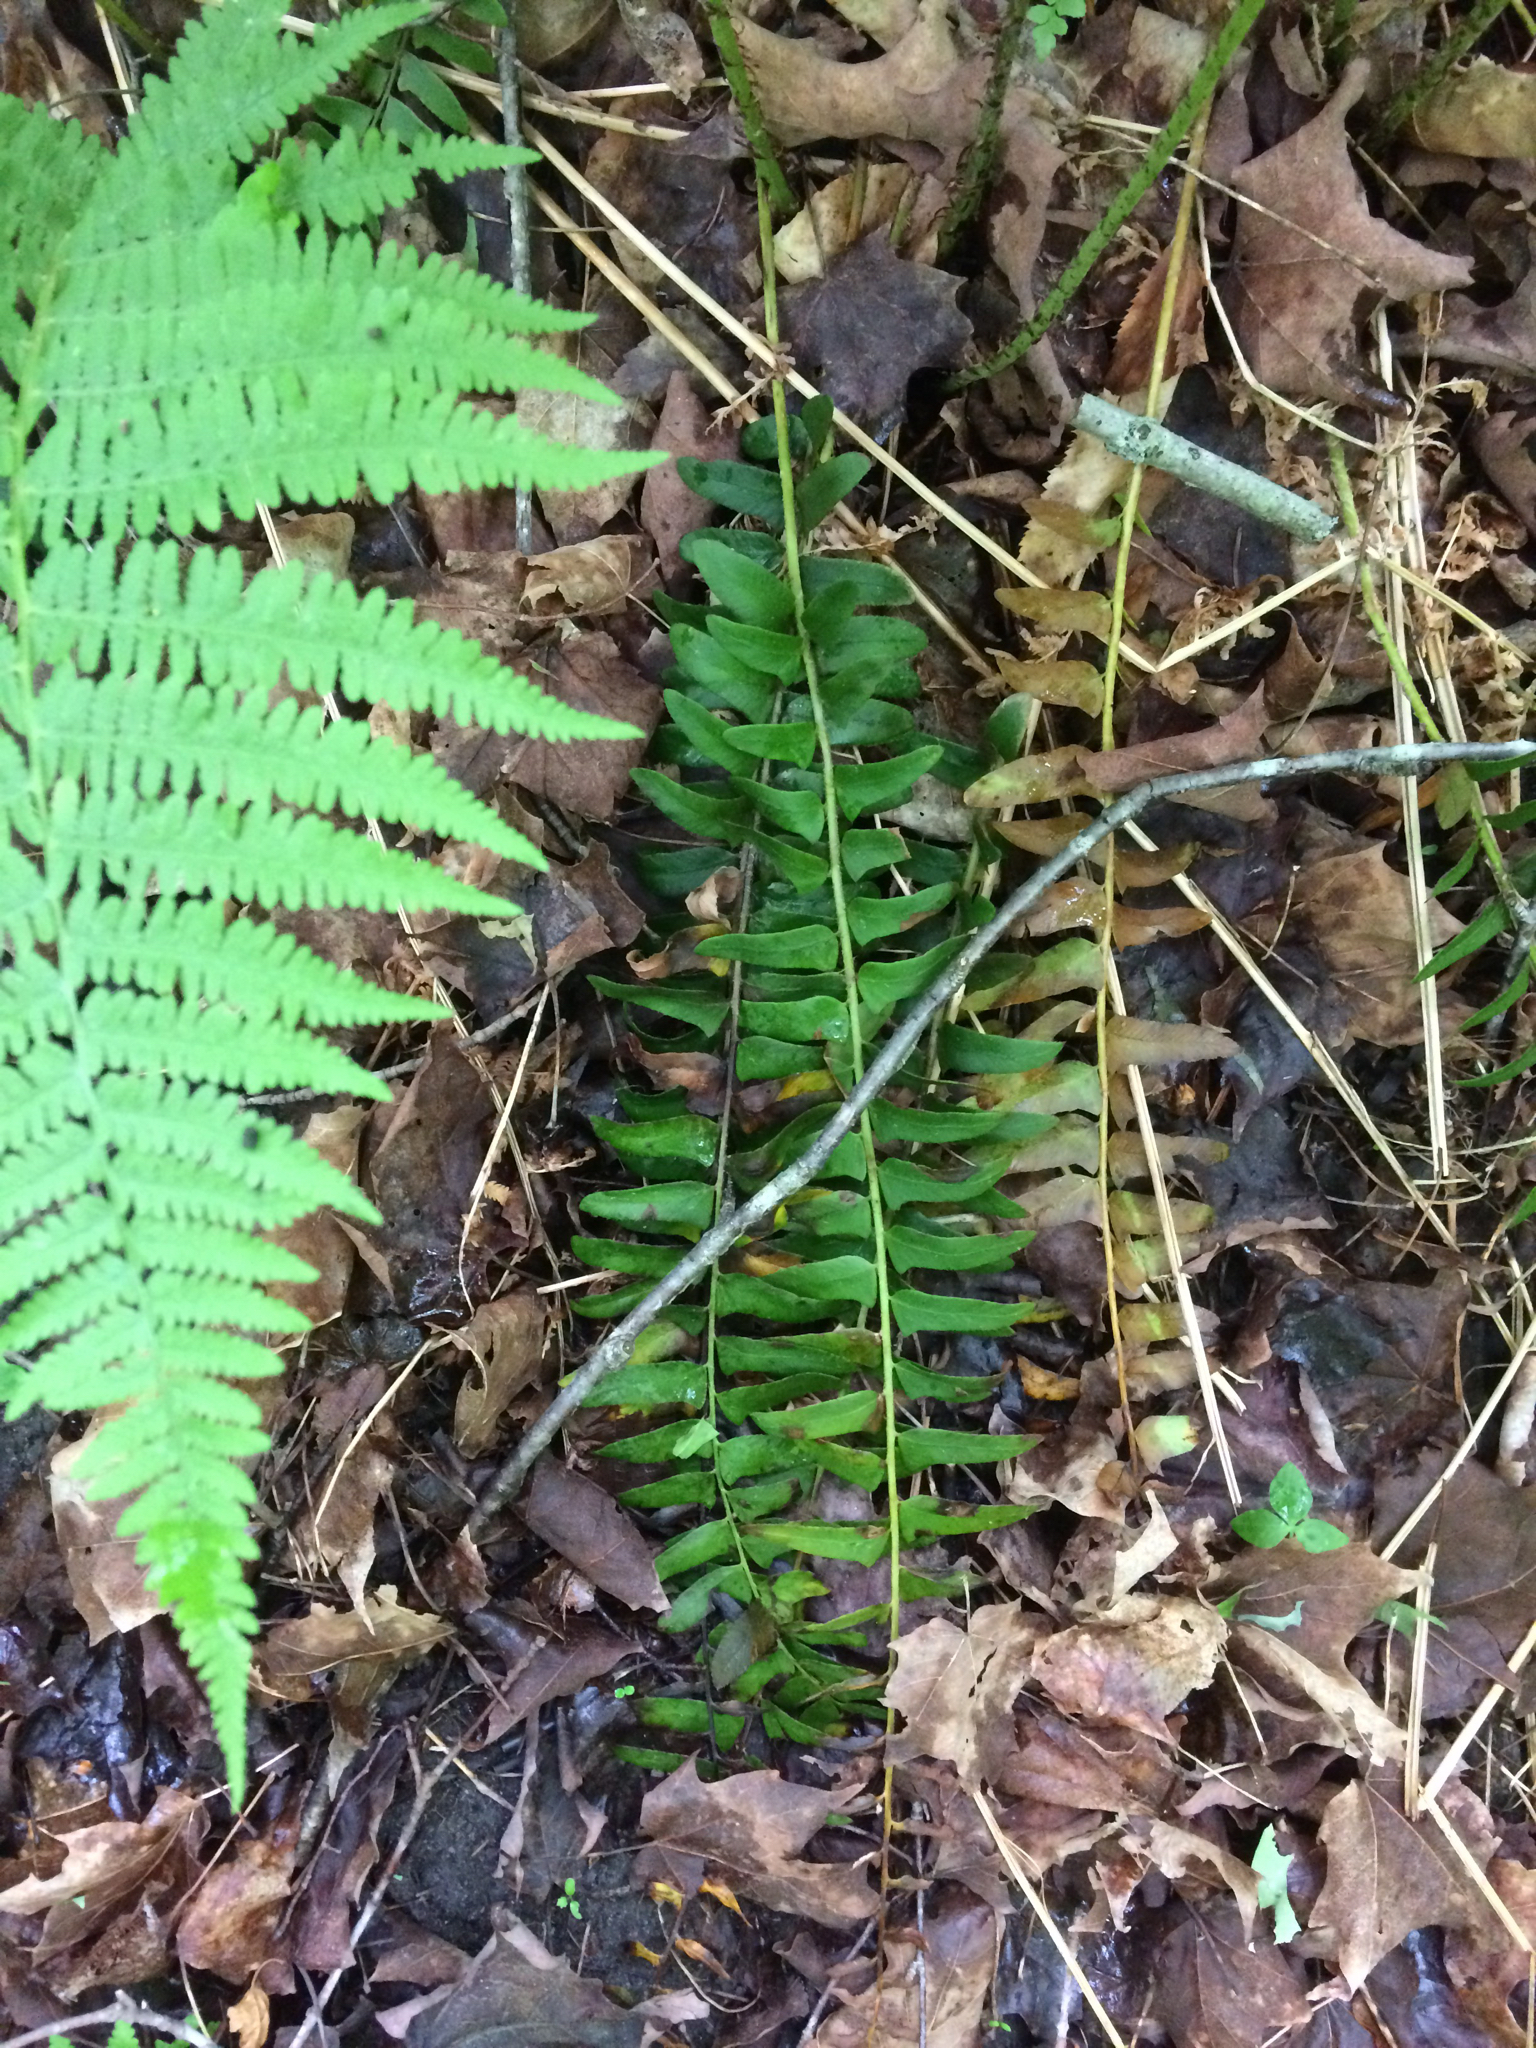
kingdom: Plantae
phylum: Tracheophyta
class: Polypodiopsida
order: Polypodiales
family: Dryopteridaceae
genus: Polystichum
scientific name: Polystichum acrostichoides
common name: Christmas fern
